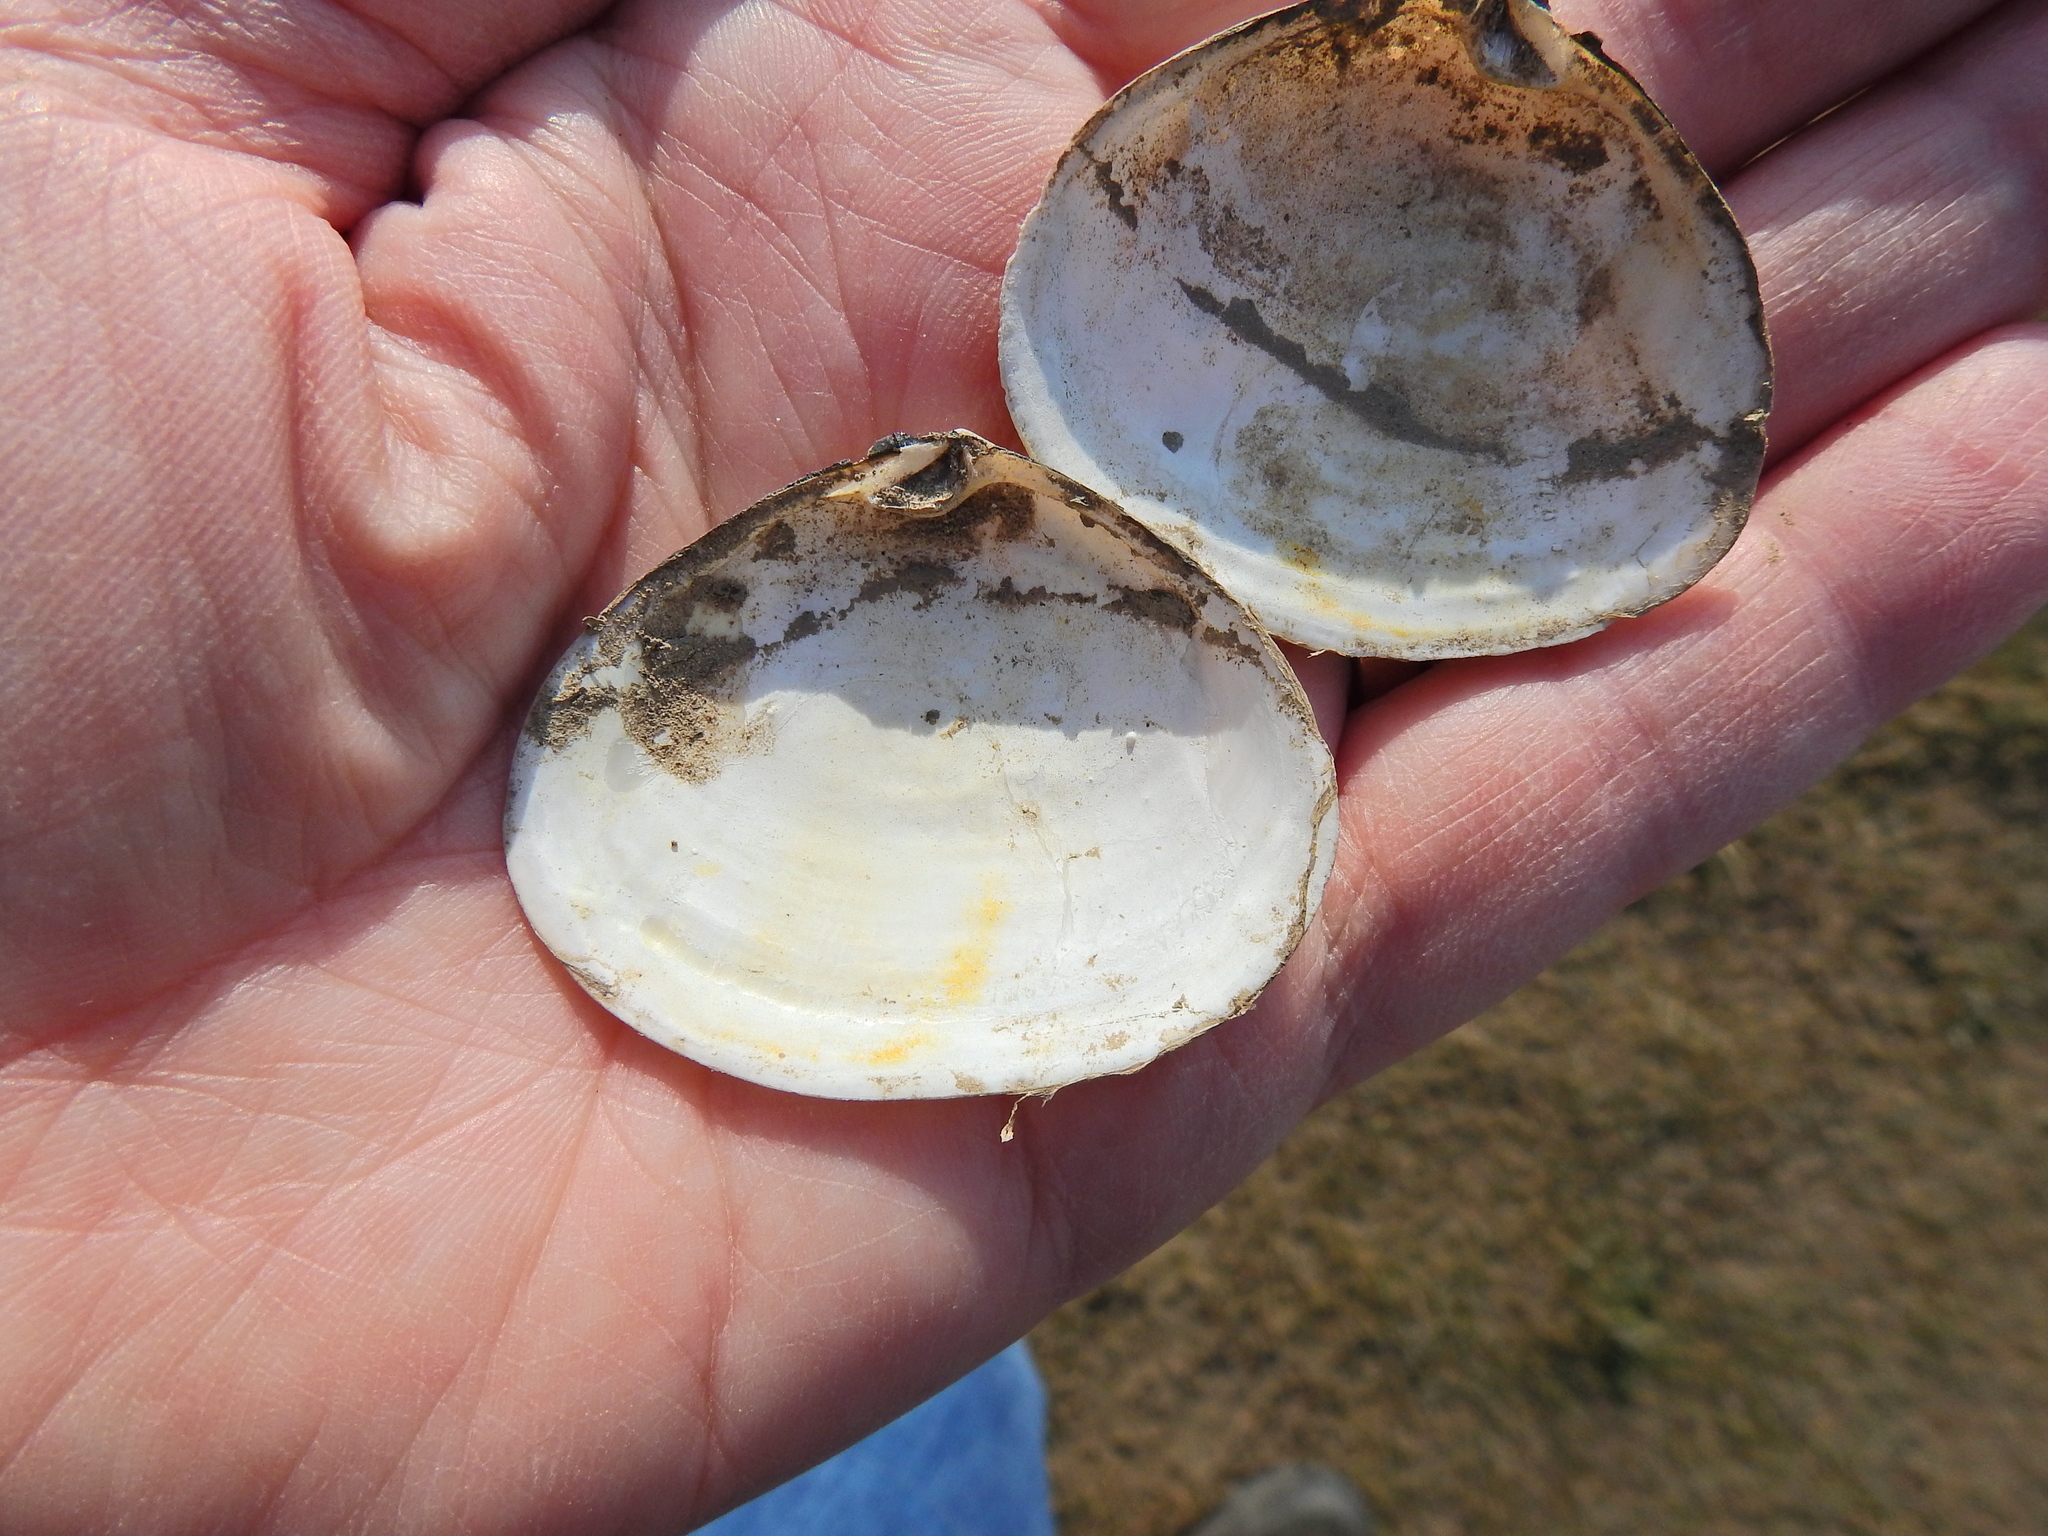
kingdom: Animalia
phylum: Mollusca
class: Bivalvia
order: Cardiida
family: Semelidae
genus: Scrobicularia
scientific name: Scrobicularia plana
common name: Peppery furrow shell
